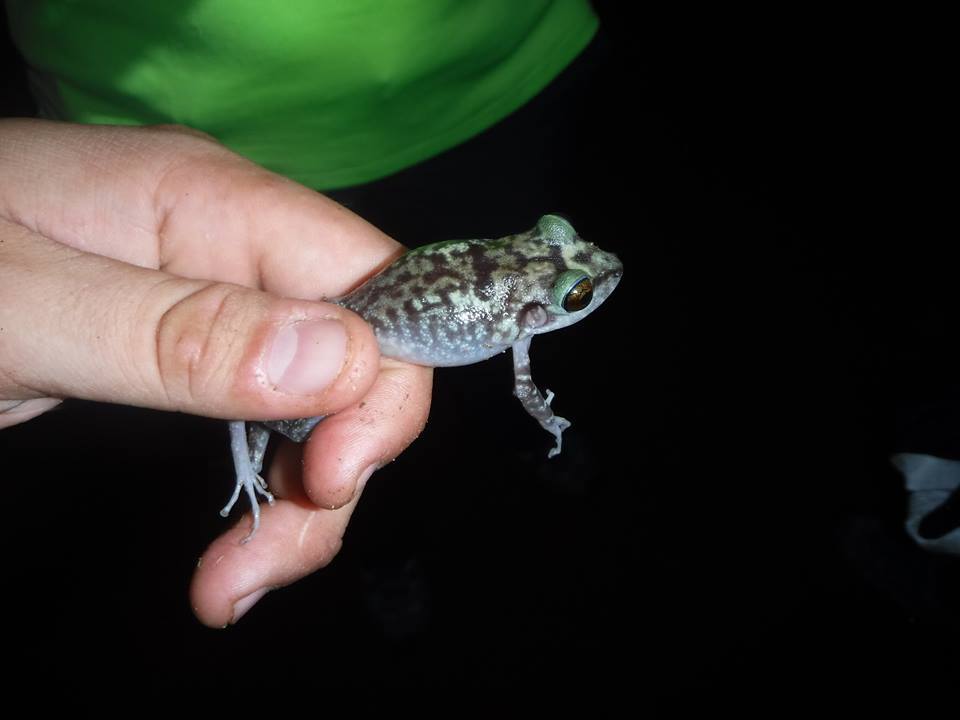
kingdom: Animalia
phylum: Chordata
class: Amphibia
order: Anura
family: Eleutherodactylidae
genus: Eleutherodactylus
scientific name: Eleutherodactylus pinarensis
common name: Cuban pineland frog
